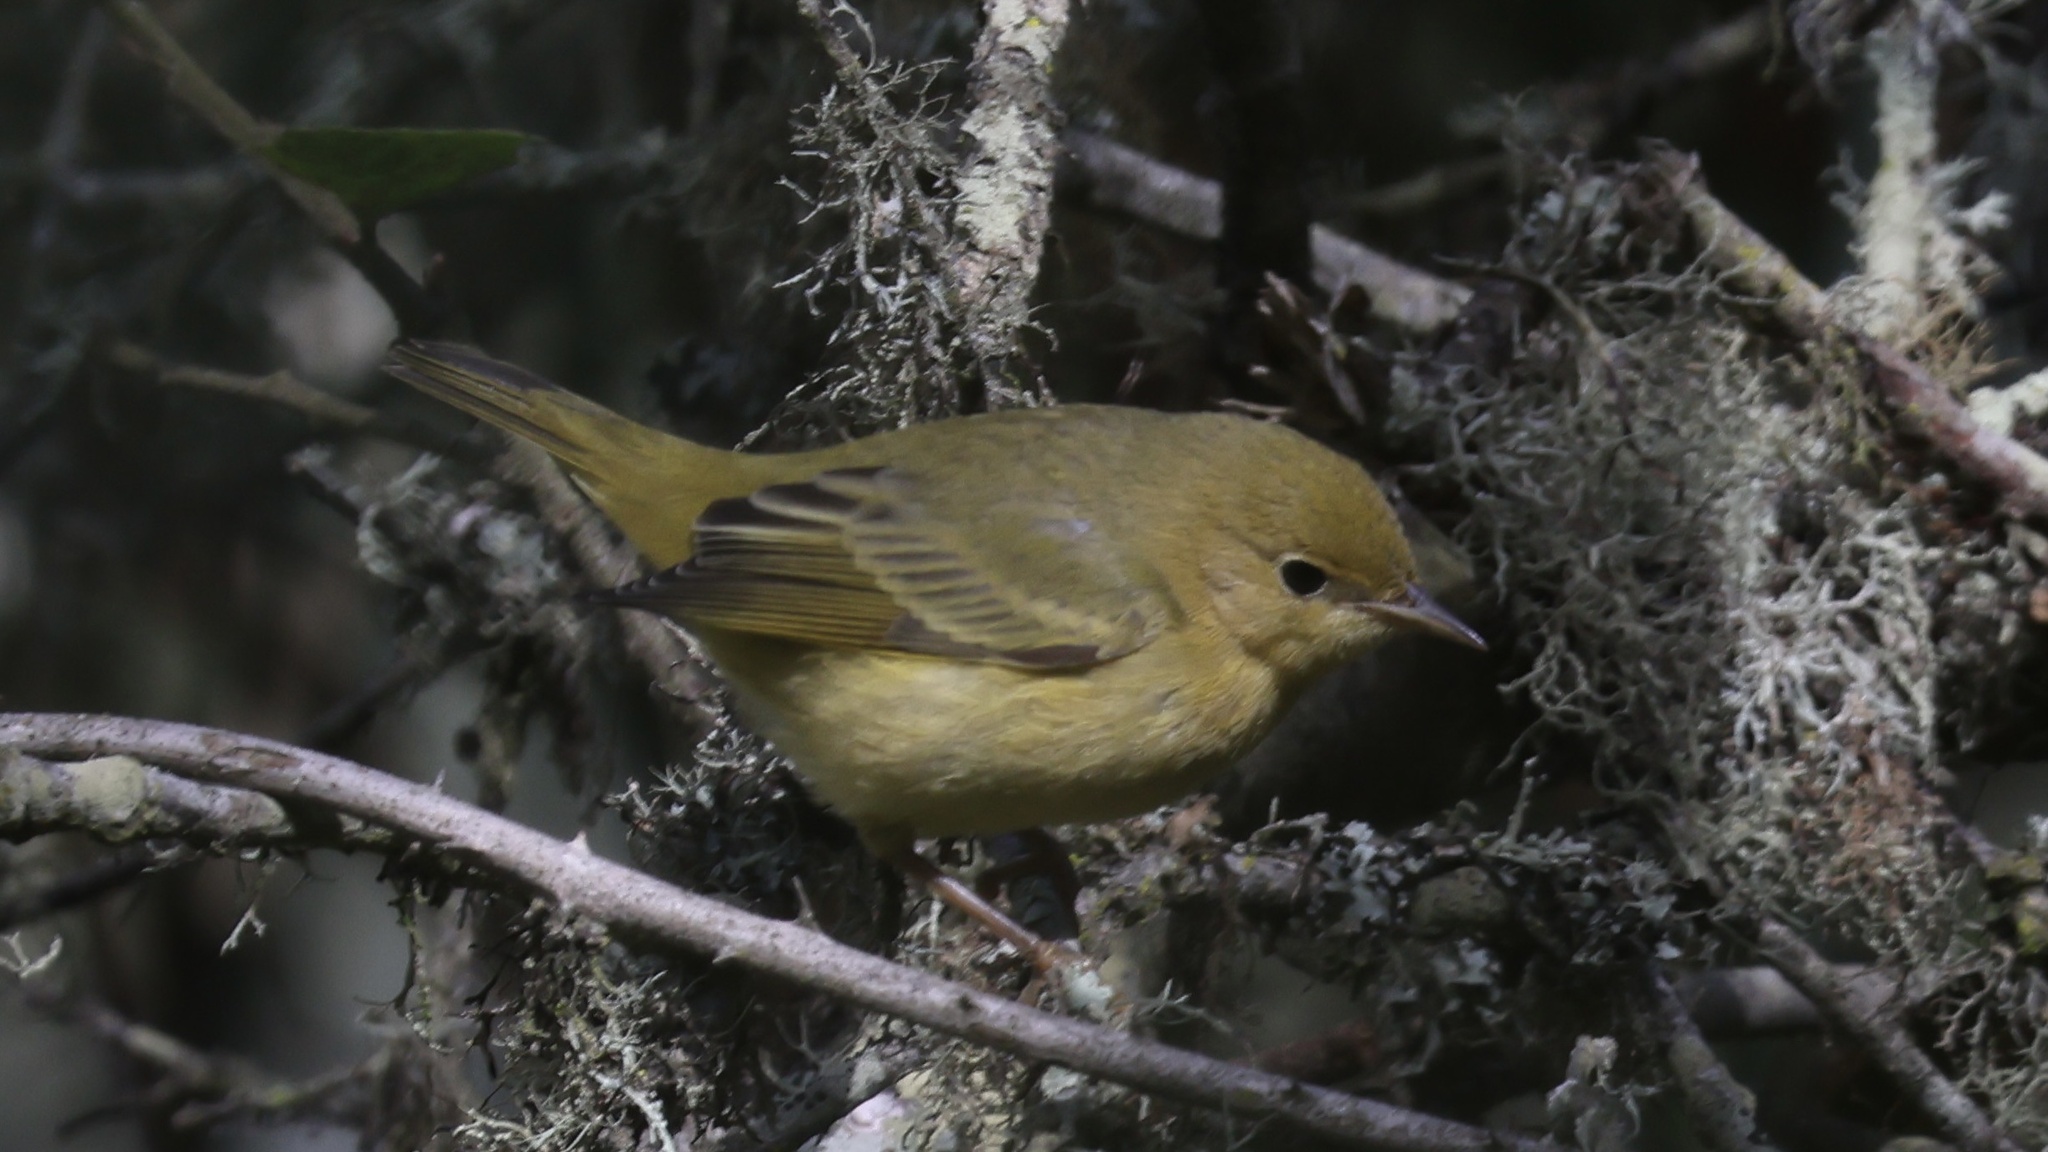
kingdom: Animalia
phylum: Chordata
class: Aves
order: Passeriformes
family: Parulidae
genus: Setophaga
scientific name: Setophaga petechia
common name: Yellow warbler
